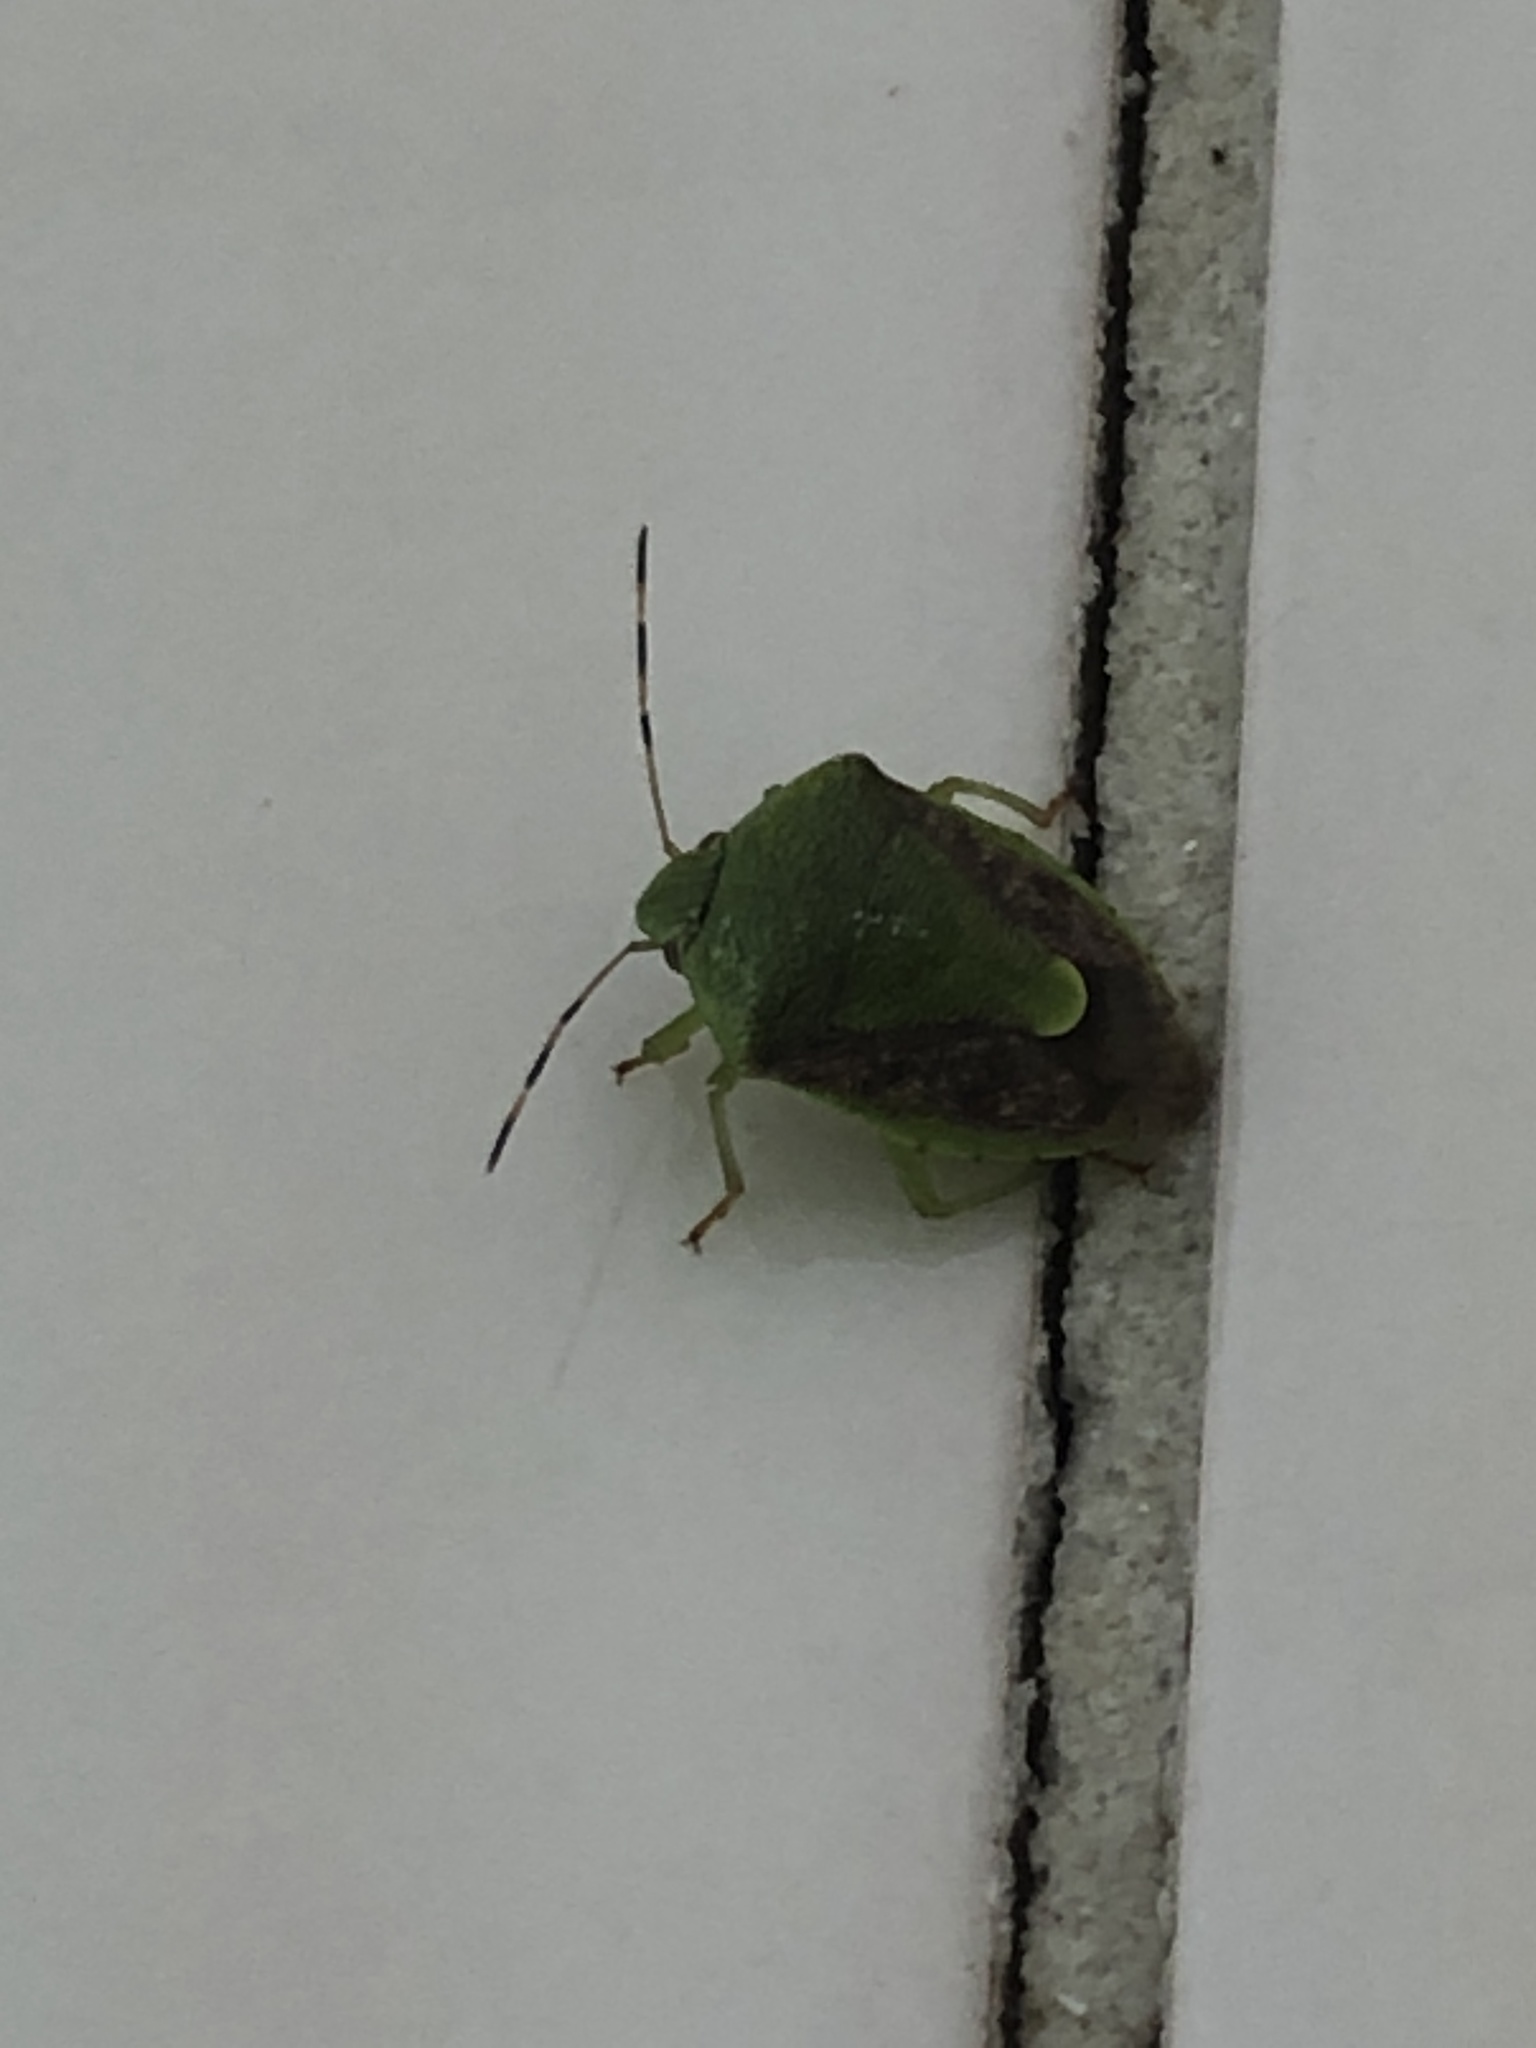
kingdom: Animalia
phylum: Arthropoda
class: Insecta
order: Hemiptera
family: Pentatomidae
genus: Plautia
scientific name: Plautia stali
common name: Stink bug
